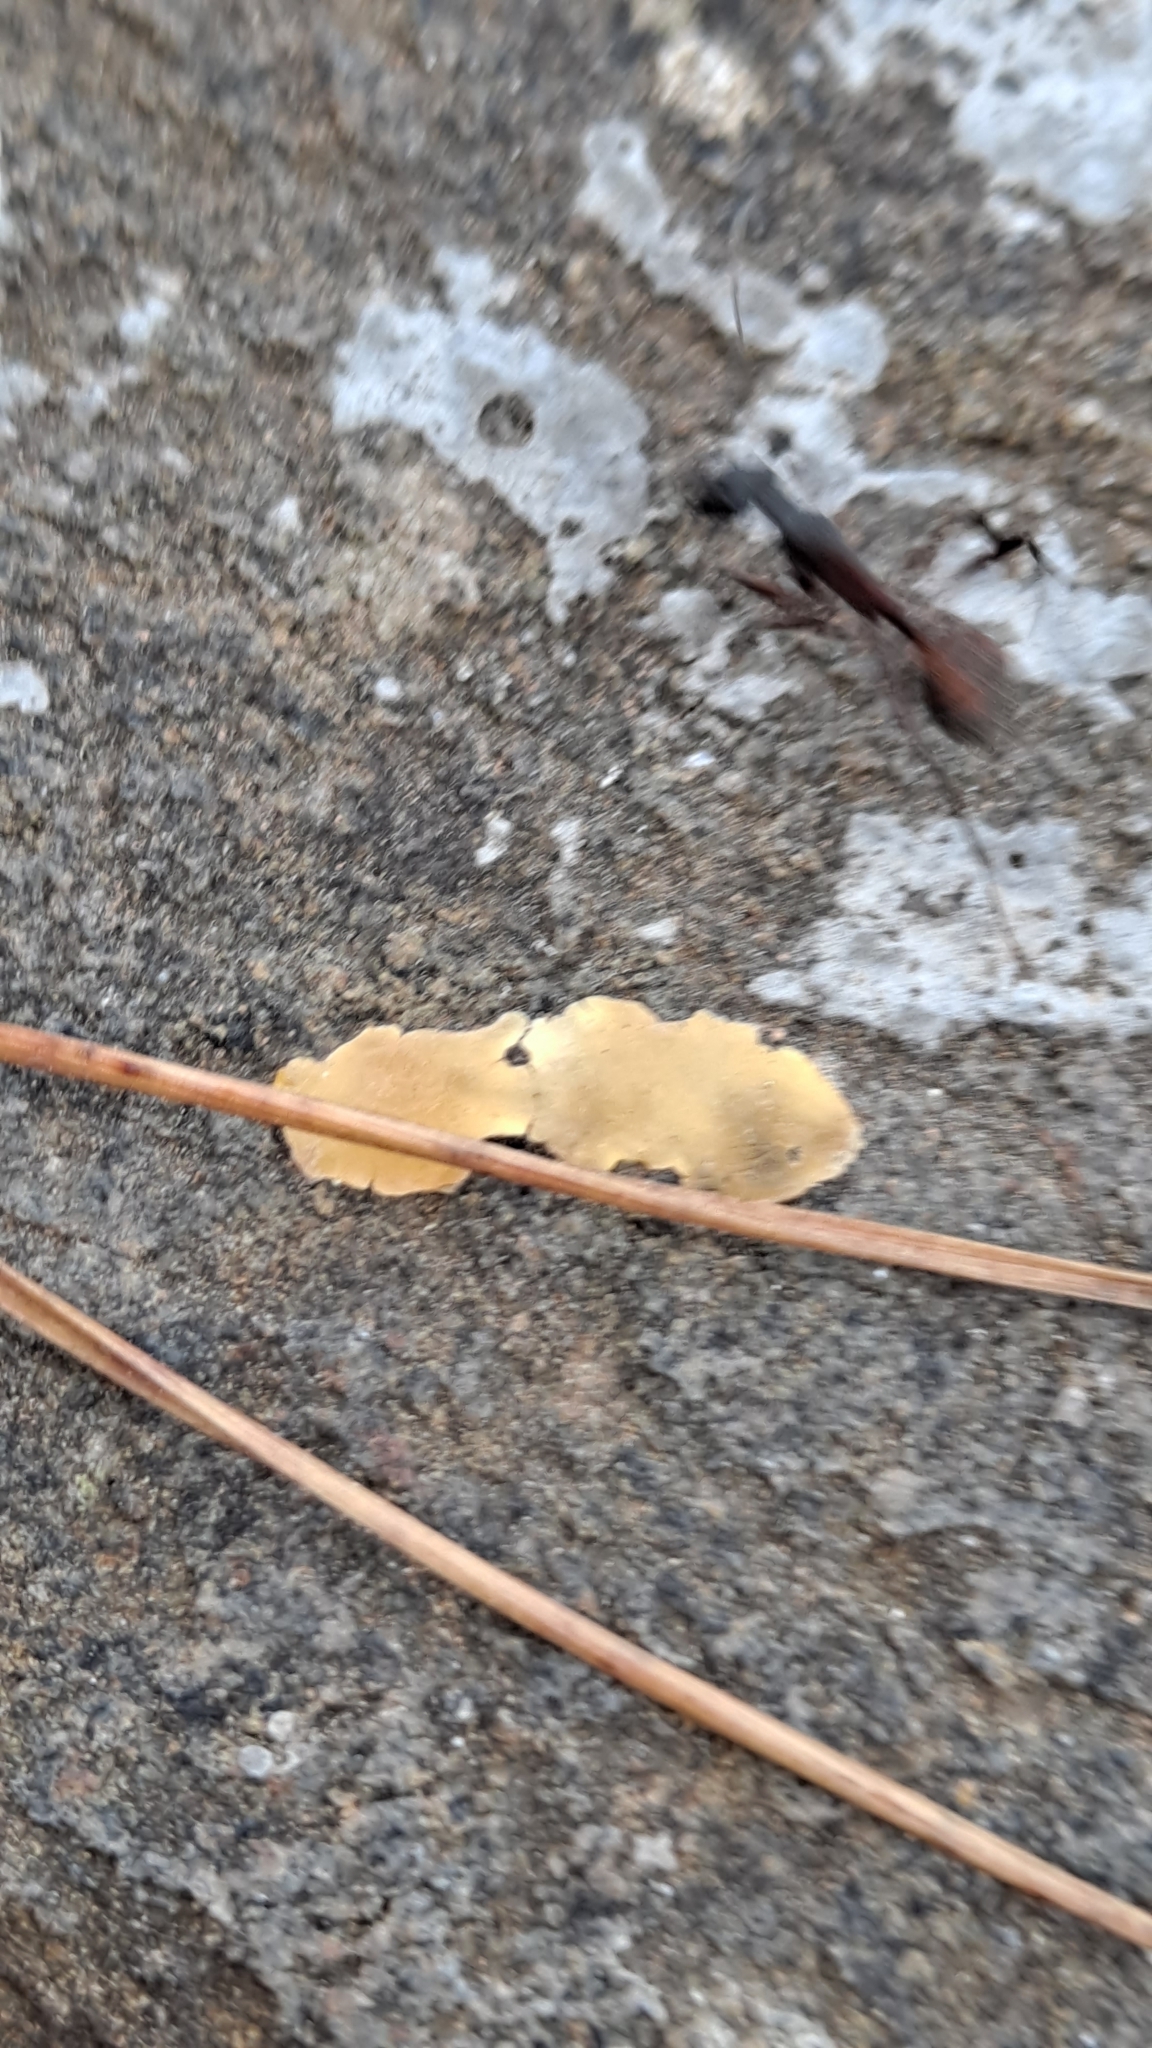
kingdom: Animalia
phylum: Arthropoda
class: Insecta
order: Hymenoptera
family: Formicidae
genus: Camponotus
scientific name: Camponotus cruentatus
